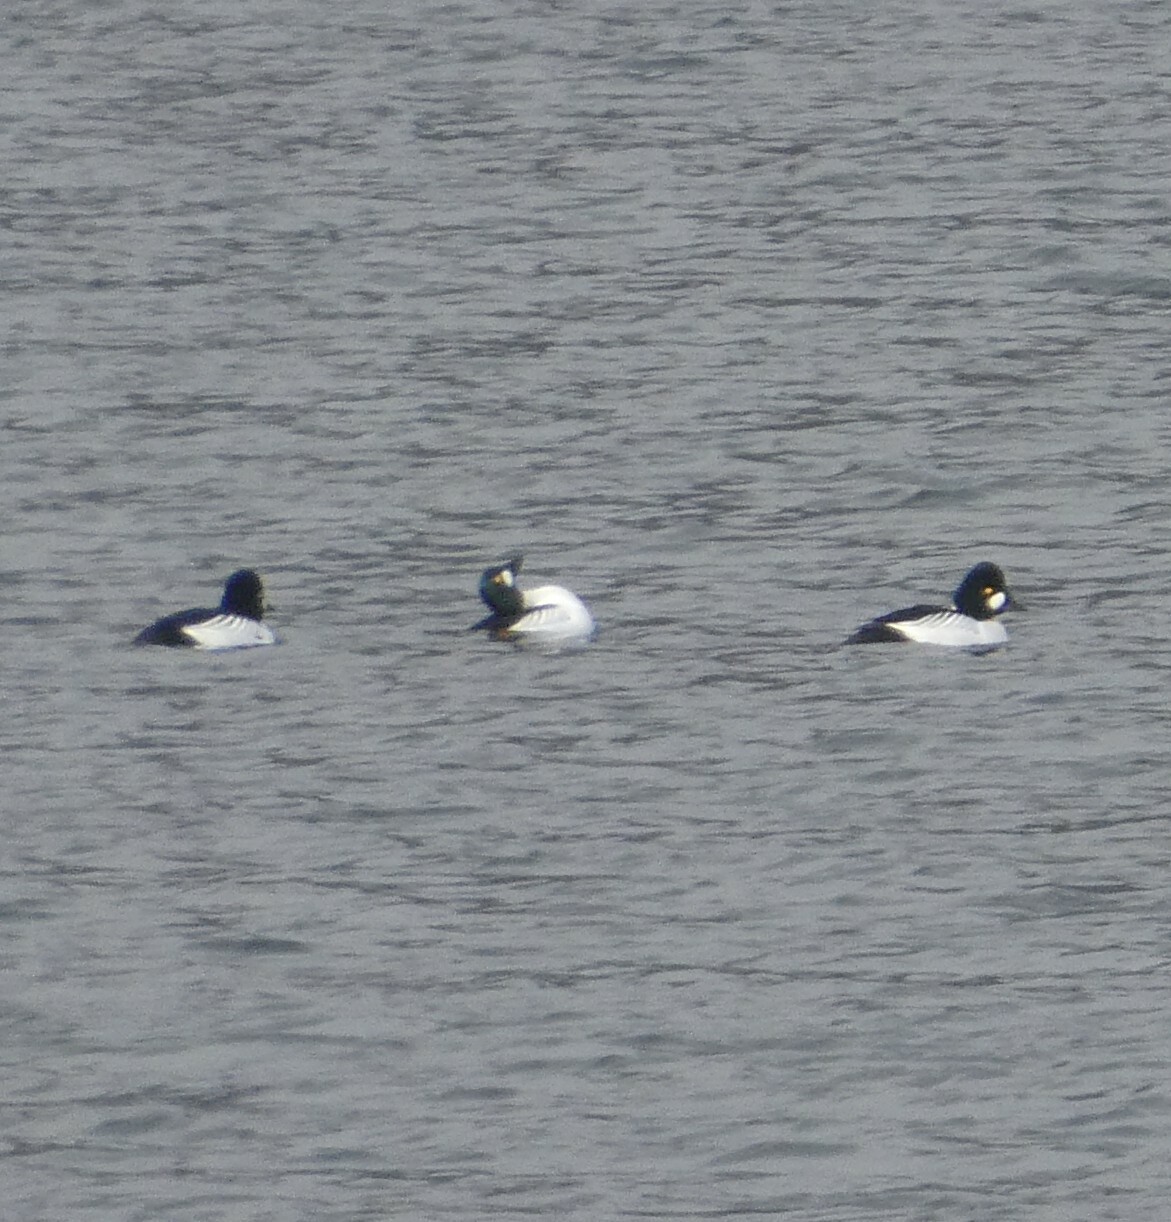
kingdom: Animalia
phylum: Chordata
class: Aves
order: Anseriformes
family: Anatidae
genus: Bucephala
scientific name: Bucephala clangula
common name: Common goldeneye
